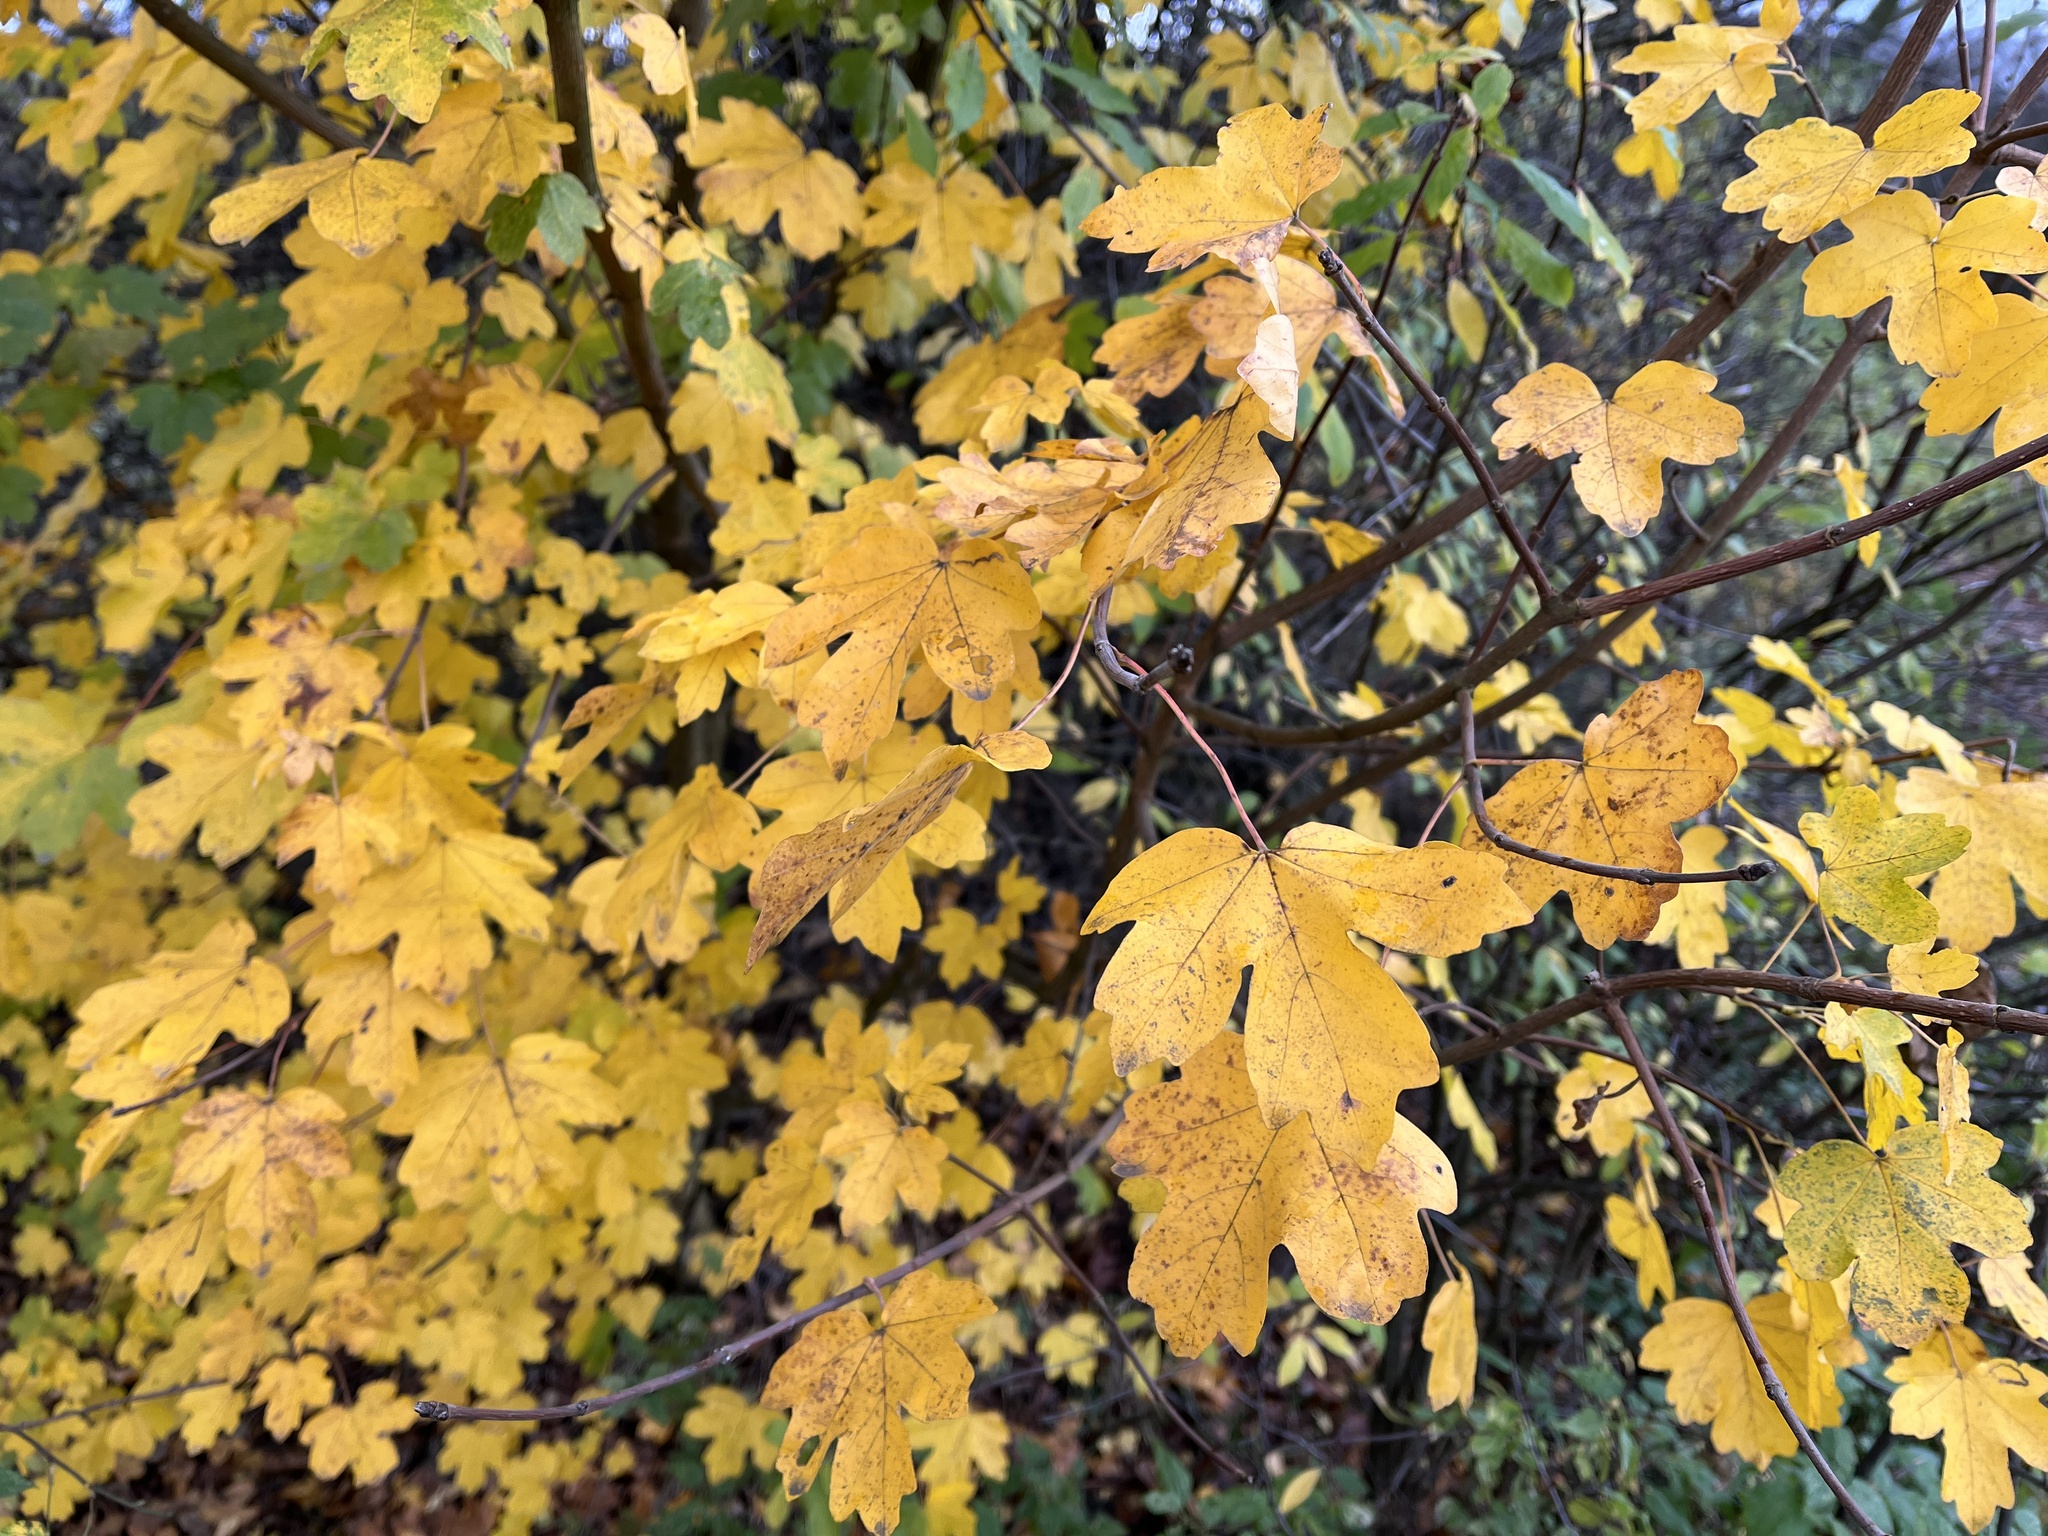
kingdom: Plantae
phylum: Tracheophyta
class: Magnoliopsida
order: Sapindales
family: Sapindaceae
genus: Acer
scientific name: Acer campestre
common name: Field maple
